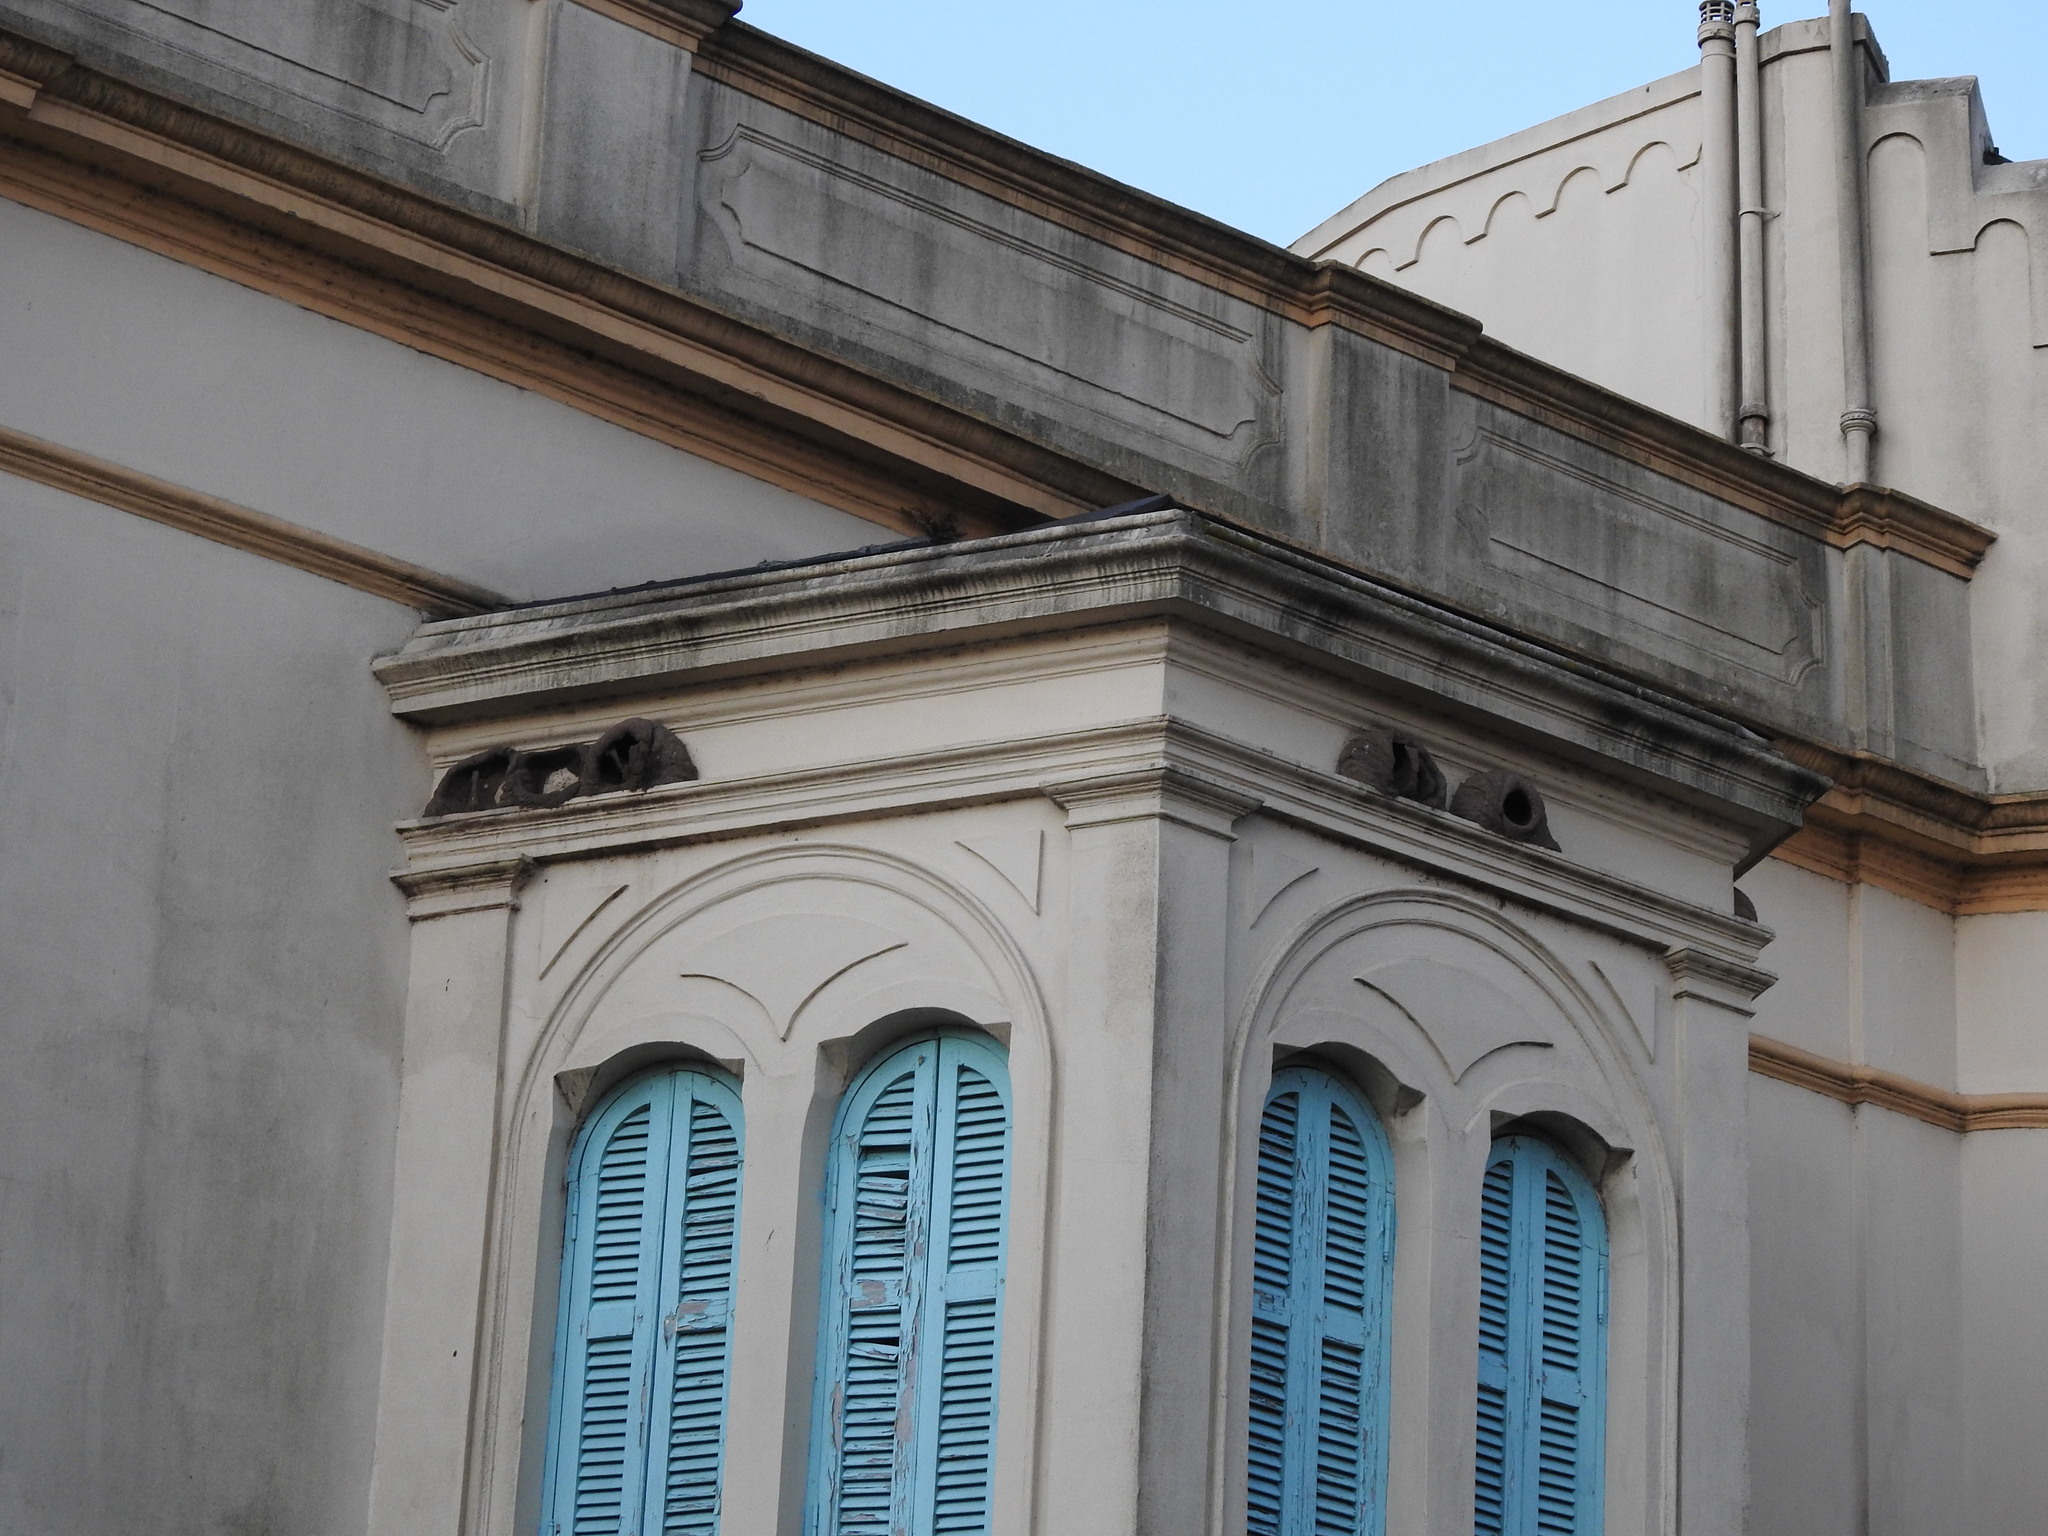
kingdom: Animalia
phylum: Chordata
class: Aves
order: Passeriformes
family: Furnariidae
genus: Furnarius
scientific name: Furnarius rufus
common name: Rufous hornero
